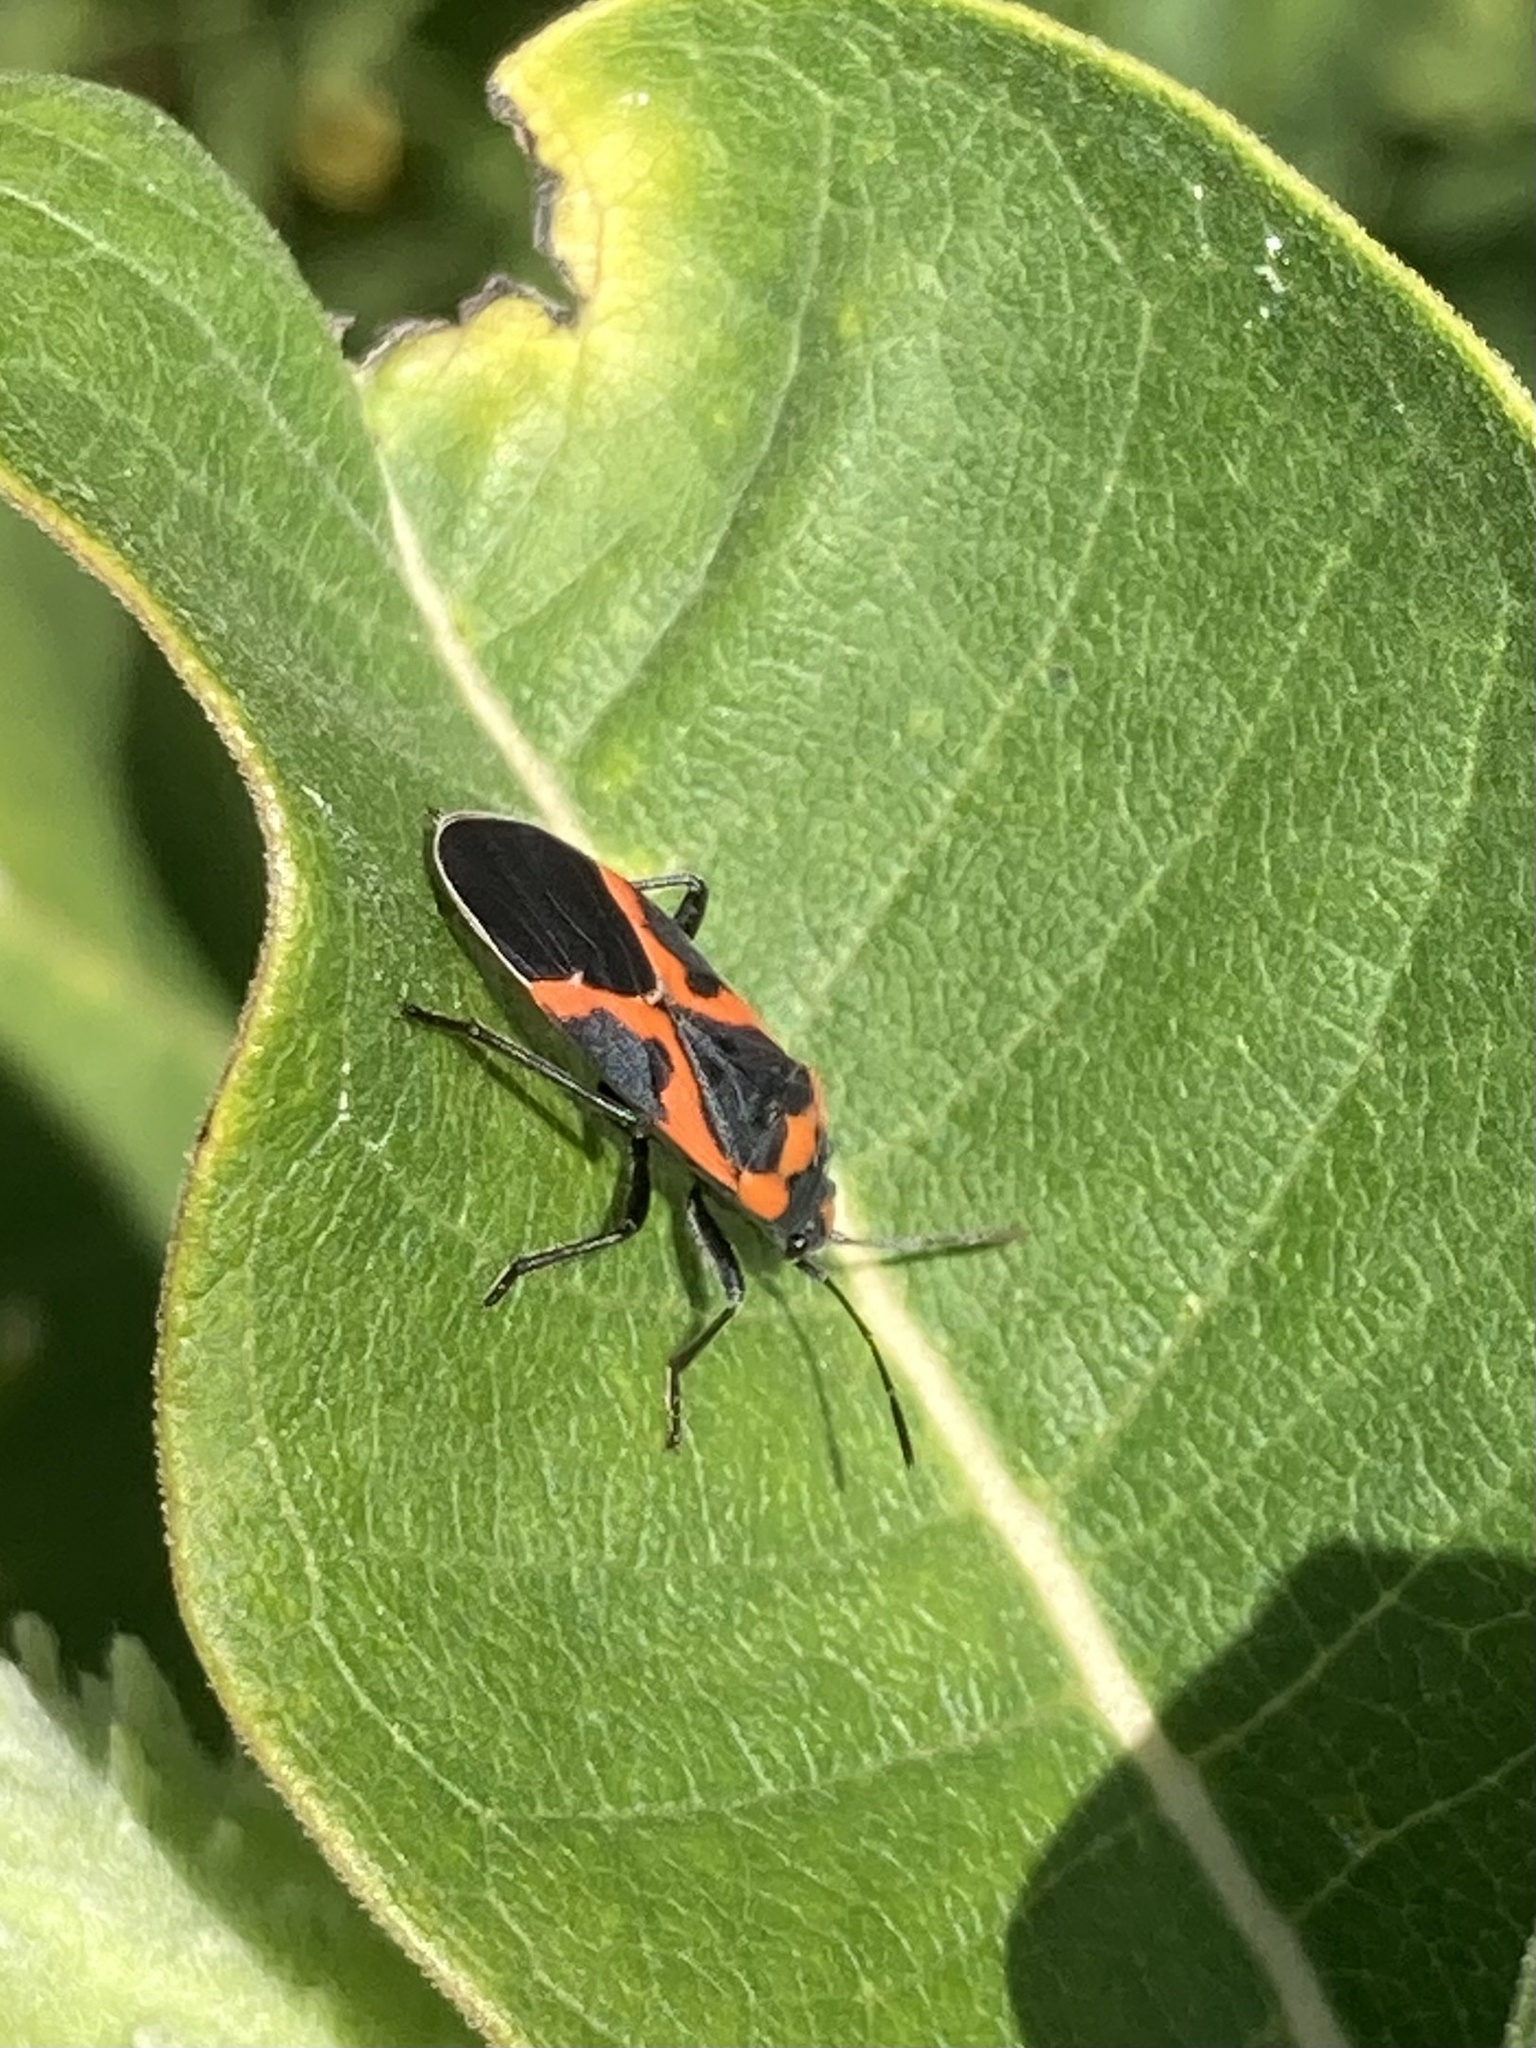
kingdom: Animalia
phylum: Arthropoda
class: Insecta
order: Hemiptera
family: Lygaeidae
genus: Lygaeus
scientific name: Lygaeus kalmii
